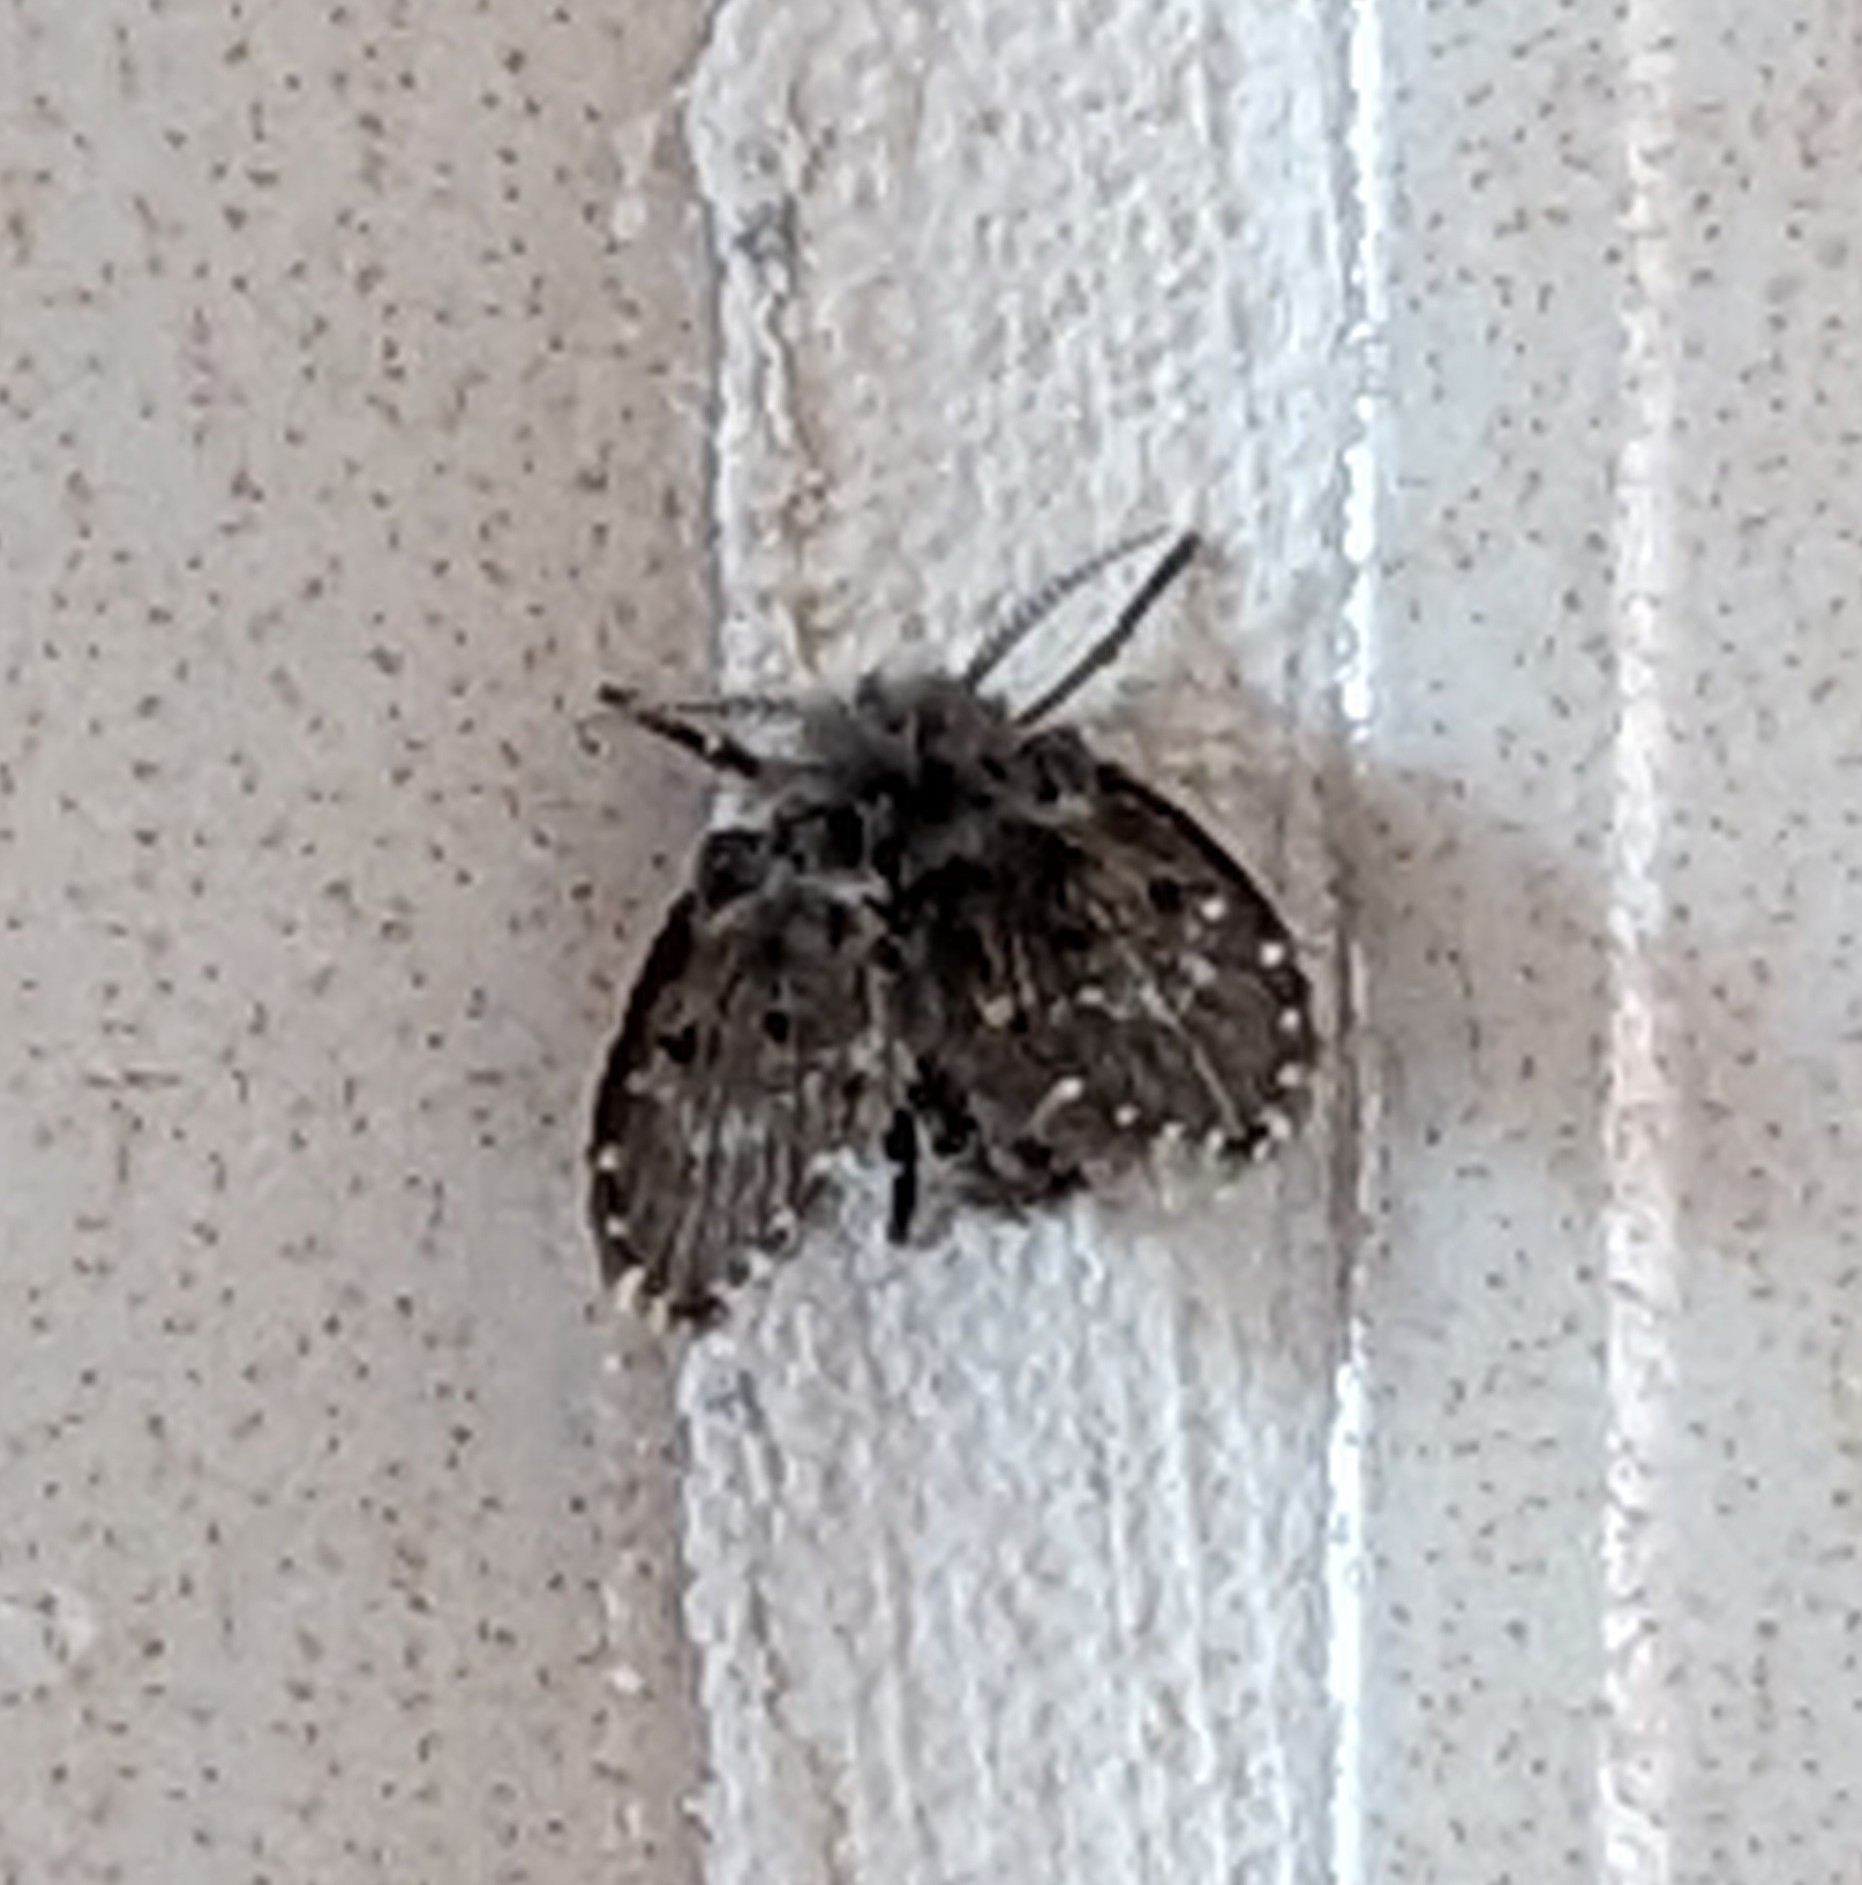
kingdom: Animalia
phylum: Arthropoda
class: Insecta
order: Diptera
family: Psychodidae
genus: Clogmia
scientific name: Clogmia albipunctatus
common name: White-spotted moth fly
